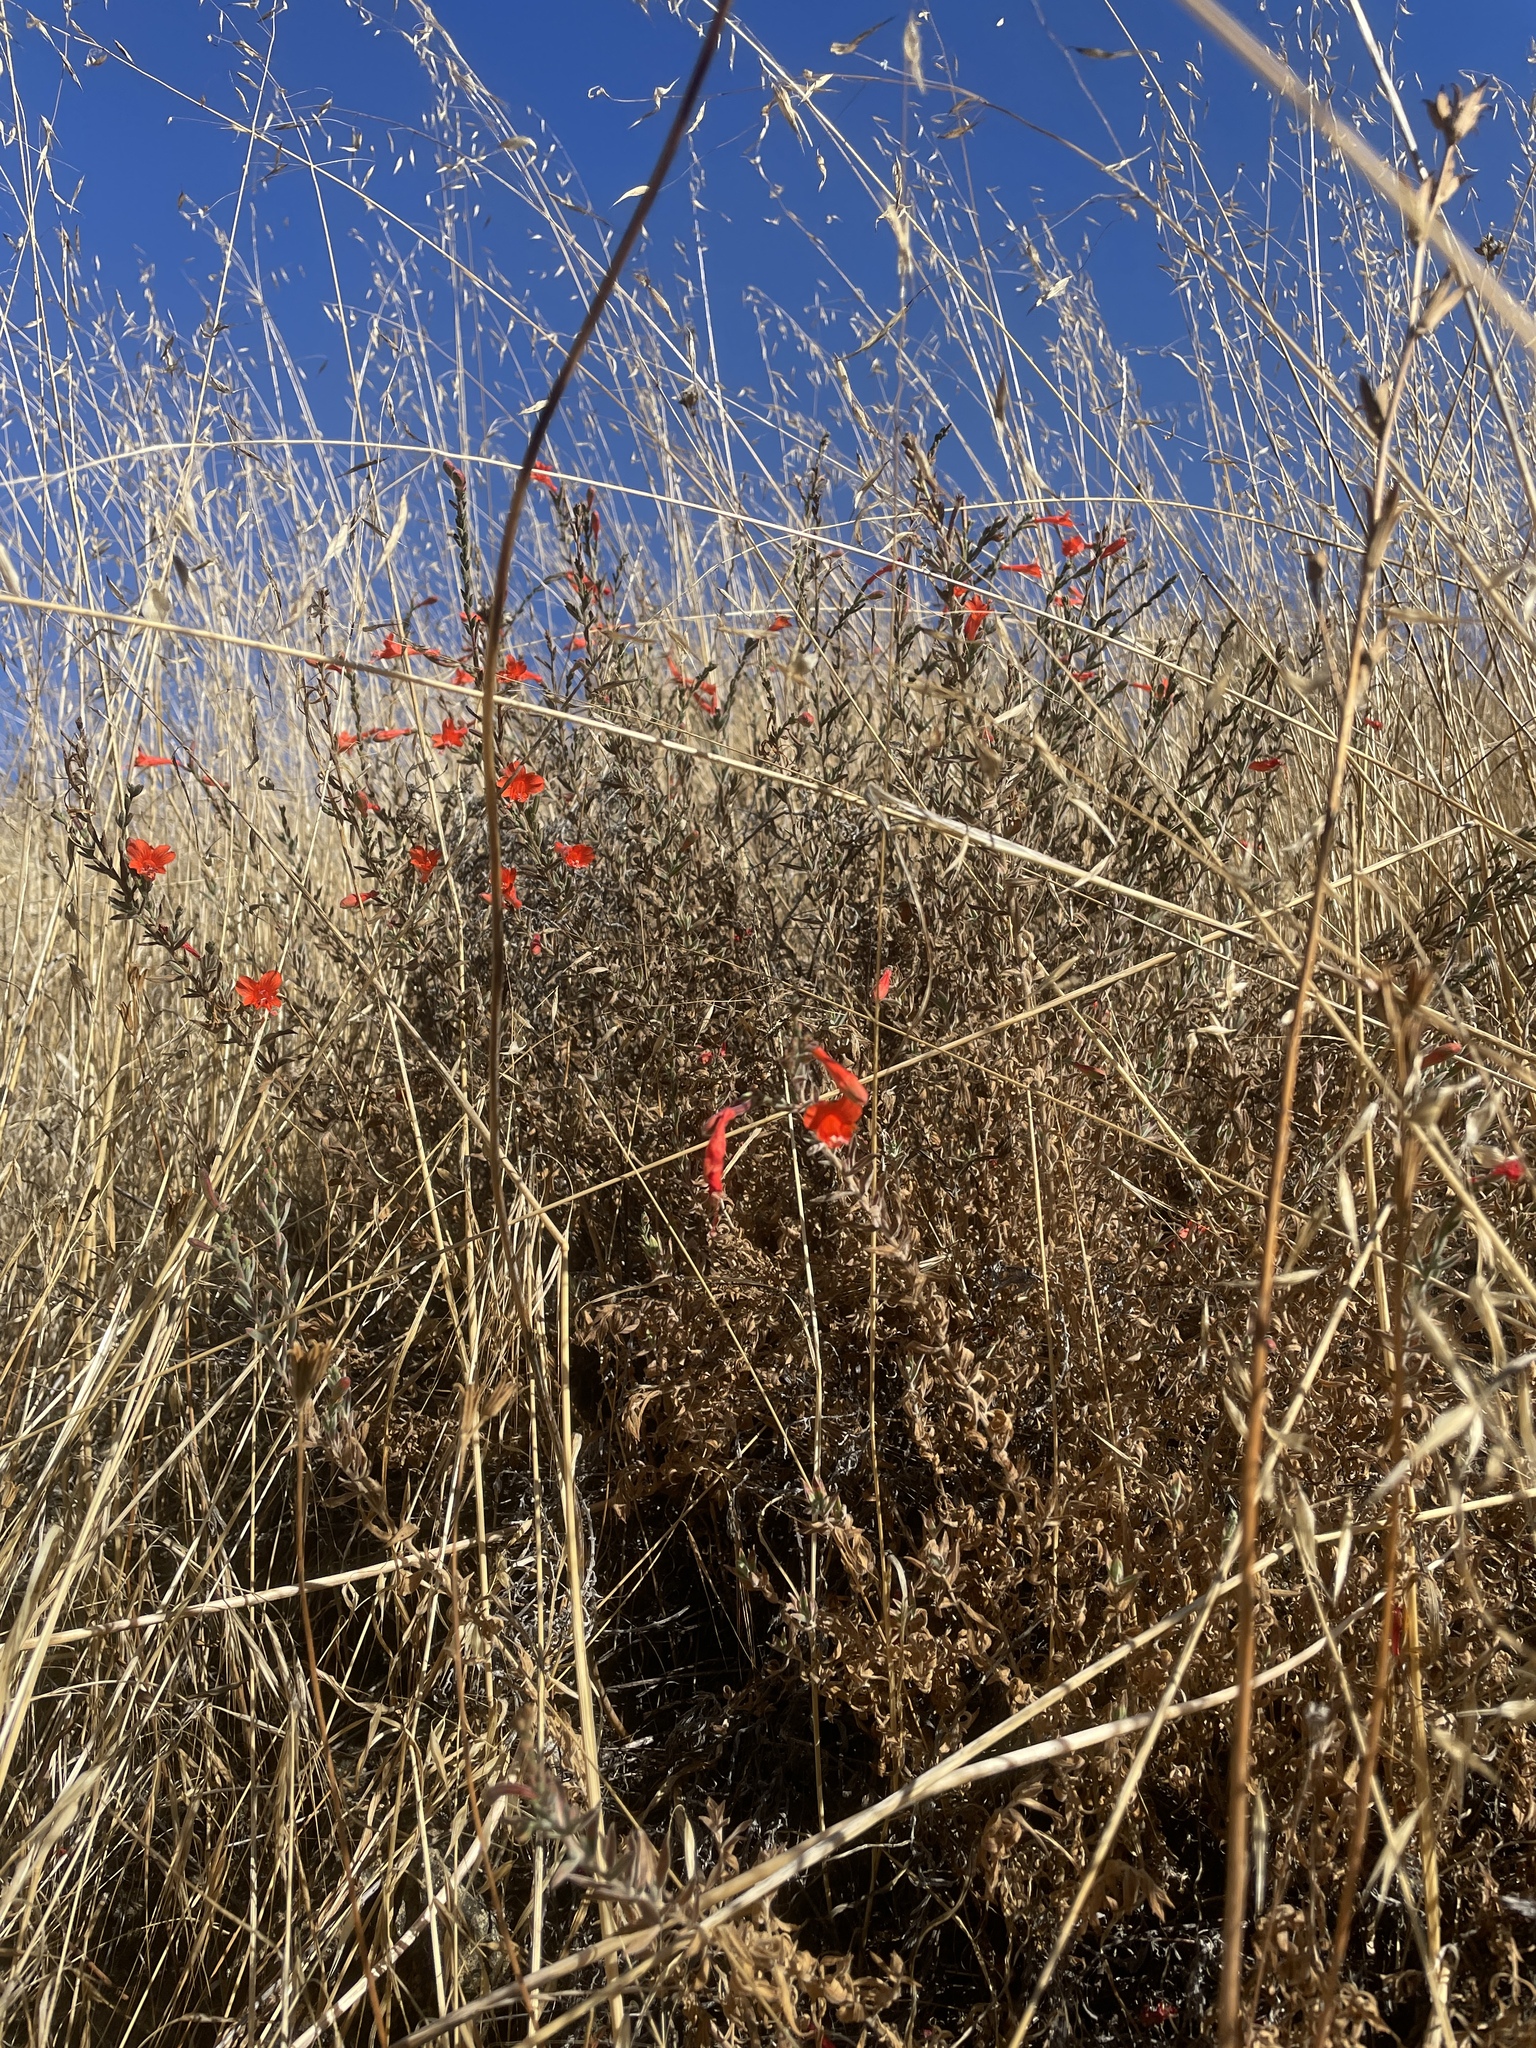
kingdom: Plantae
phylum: Tracheophyta
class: Magnoliopsida
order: Myrtales
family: Onagraceae
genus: Epilobium
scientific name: Epilobium canum
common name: California-fuchsia
